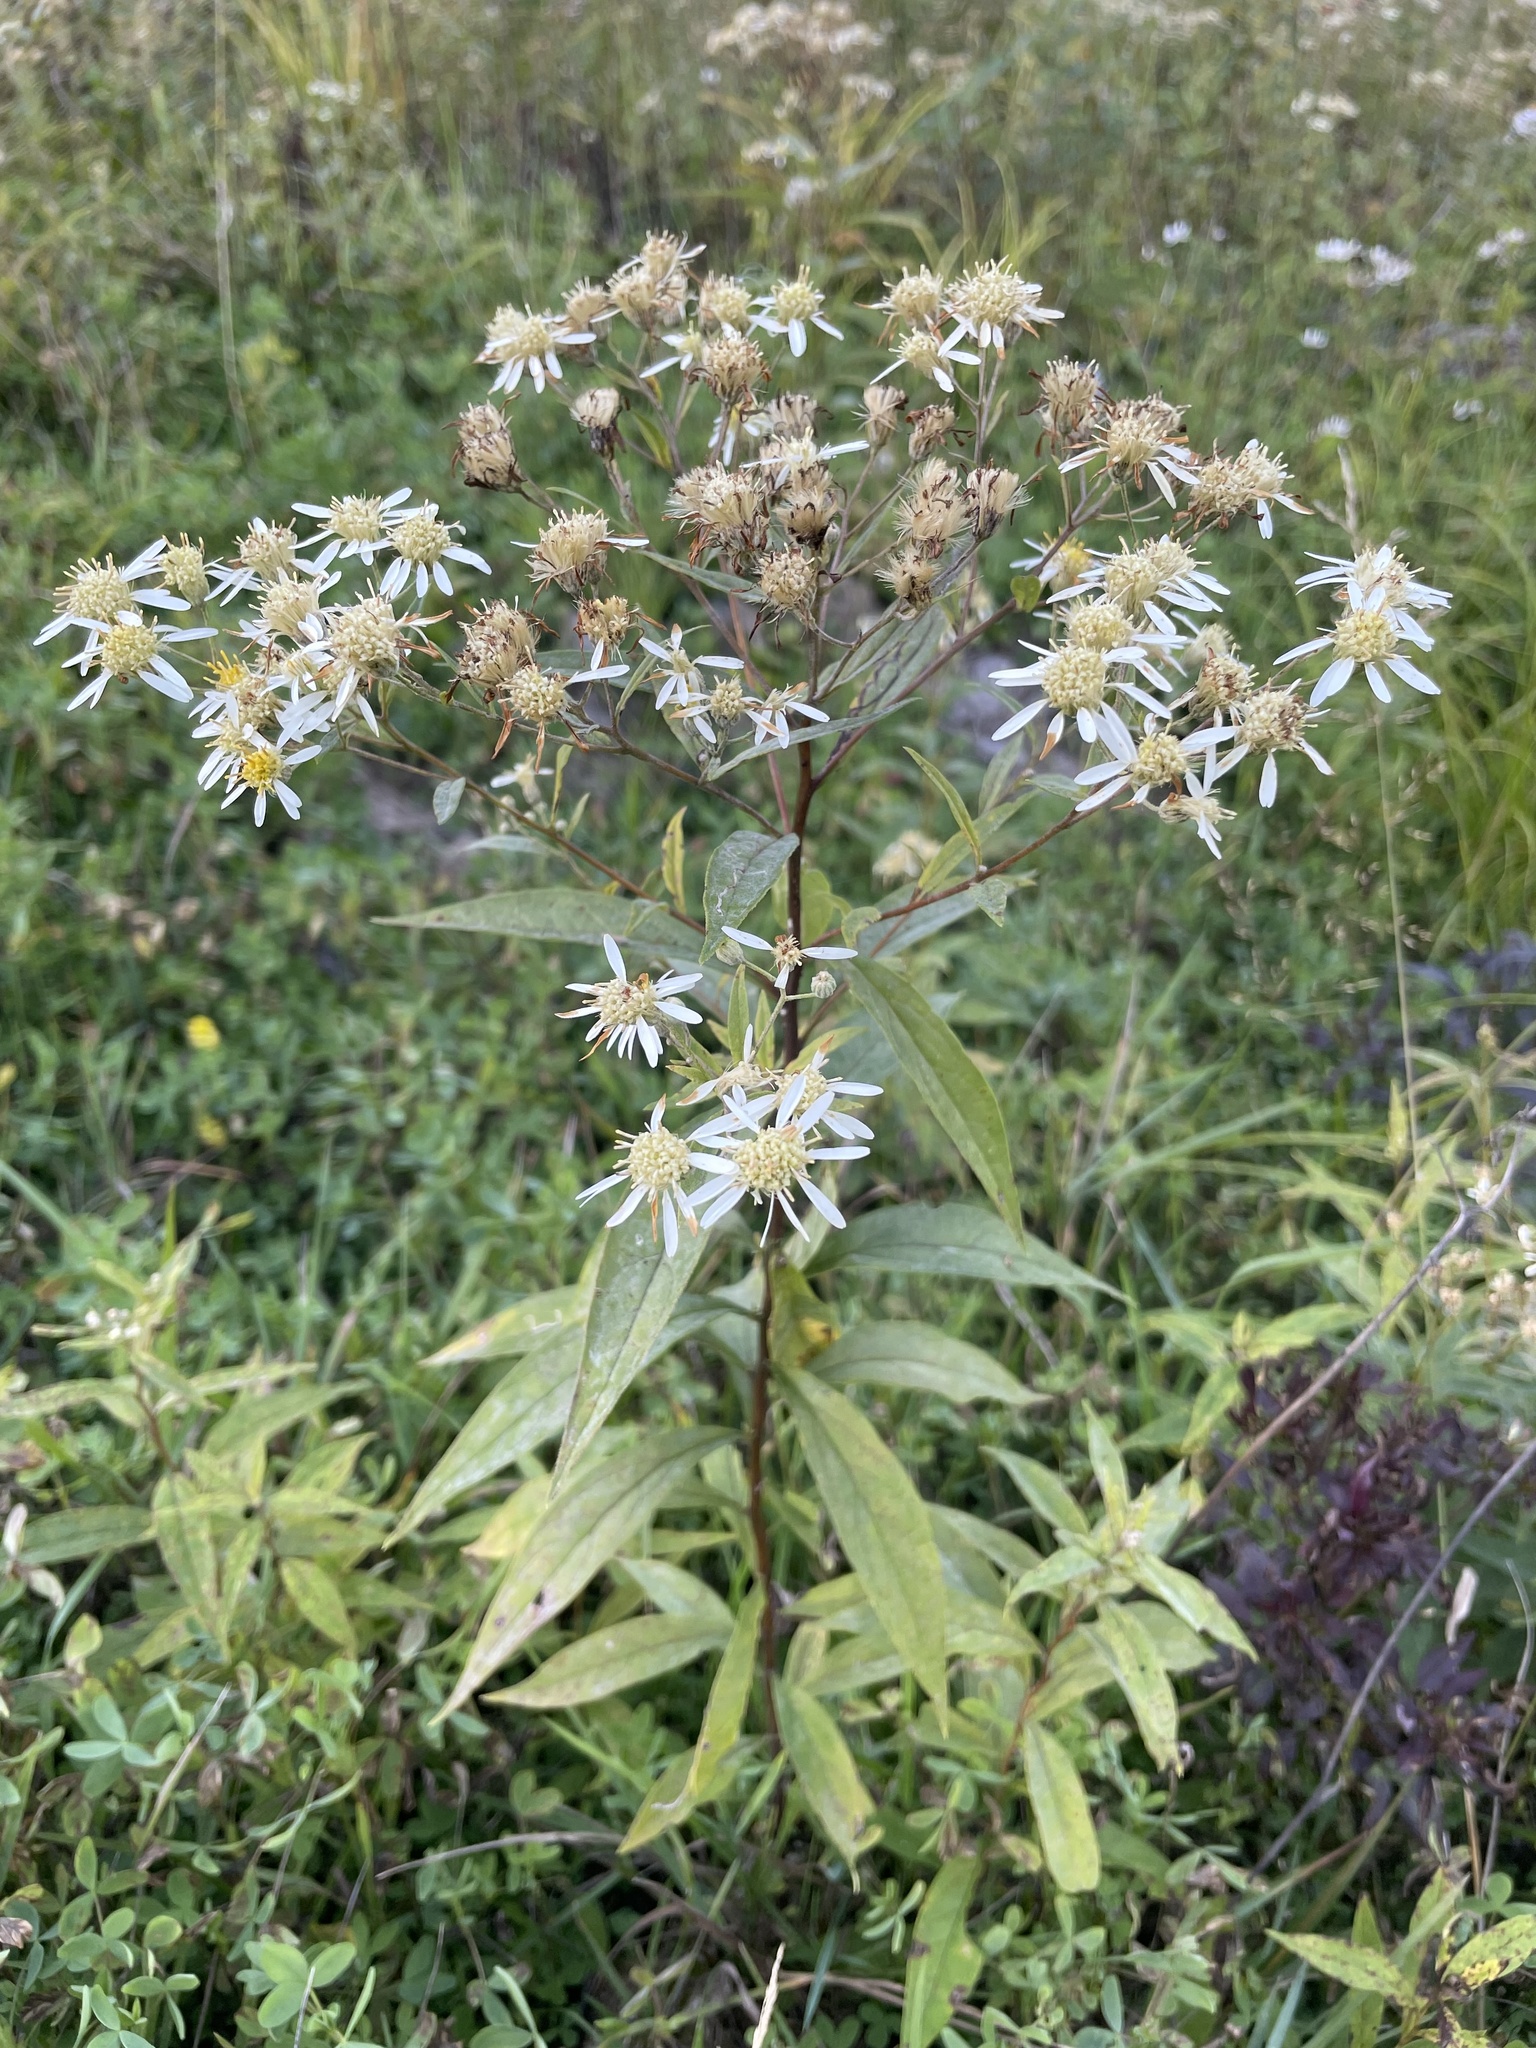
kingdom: Plantae
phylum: Tracheophyta
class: Magnoliopsida
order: Asterales
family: Asteraceae
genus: Doellingeria
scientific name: Doellingeria umbellata
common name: Flat-top white aster
